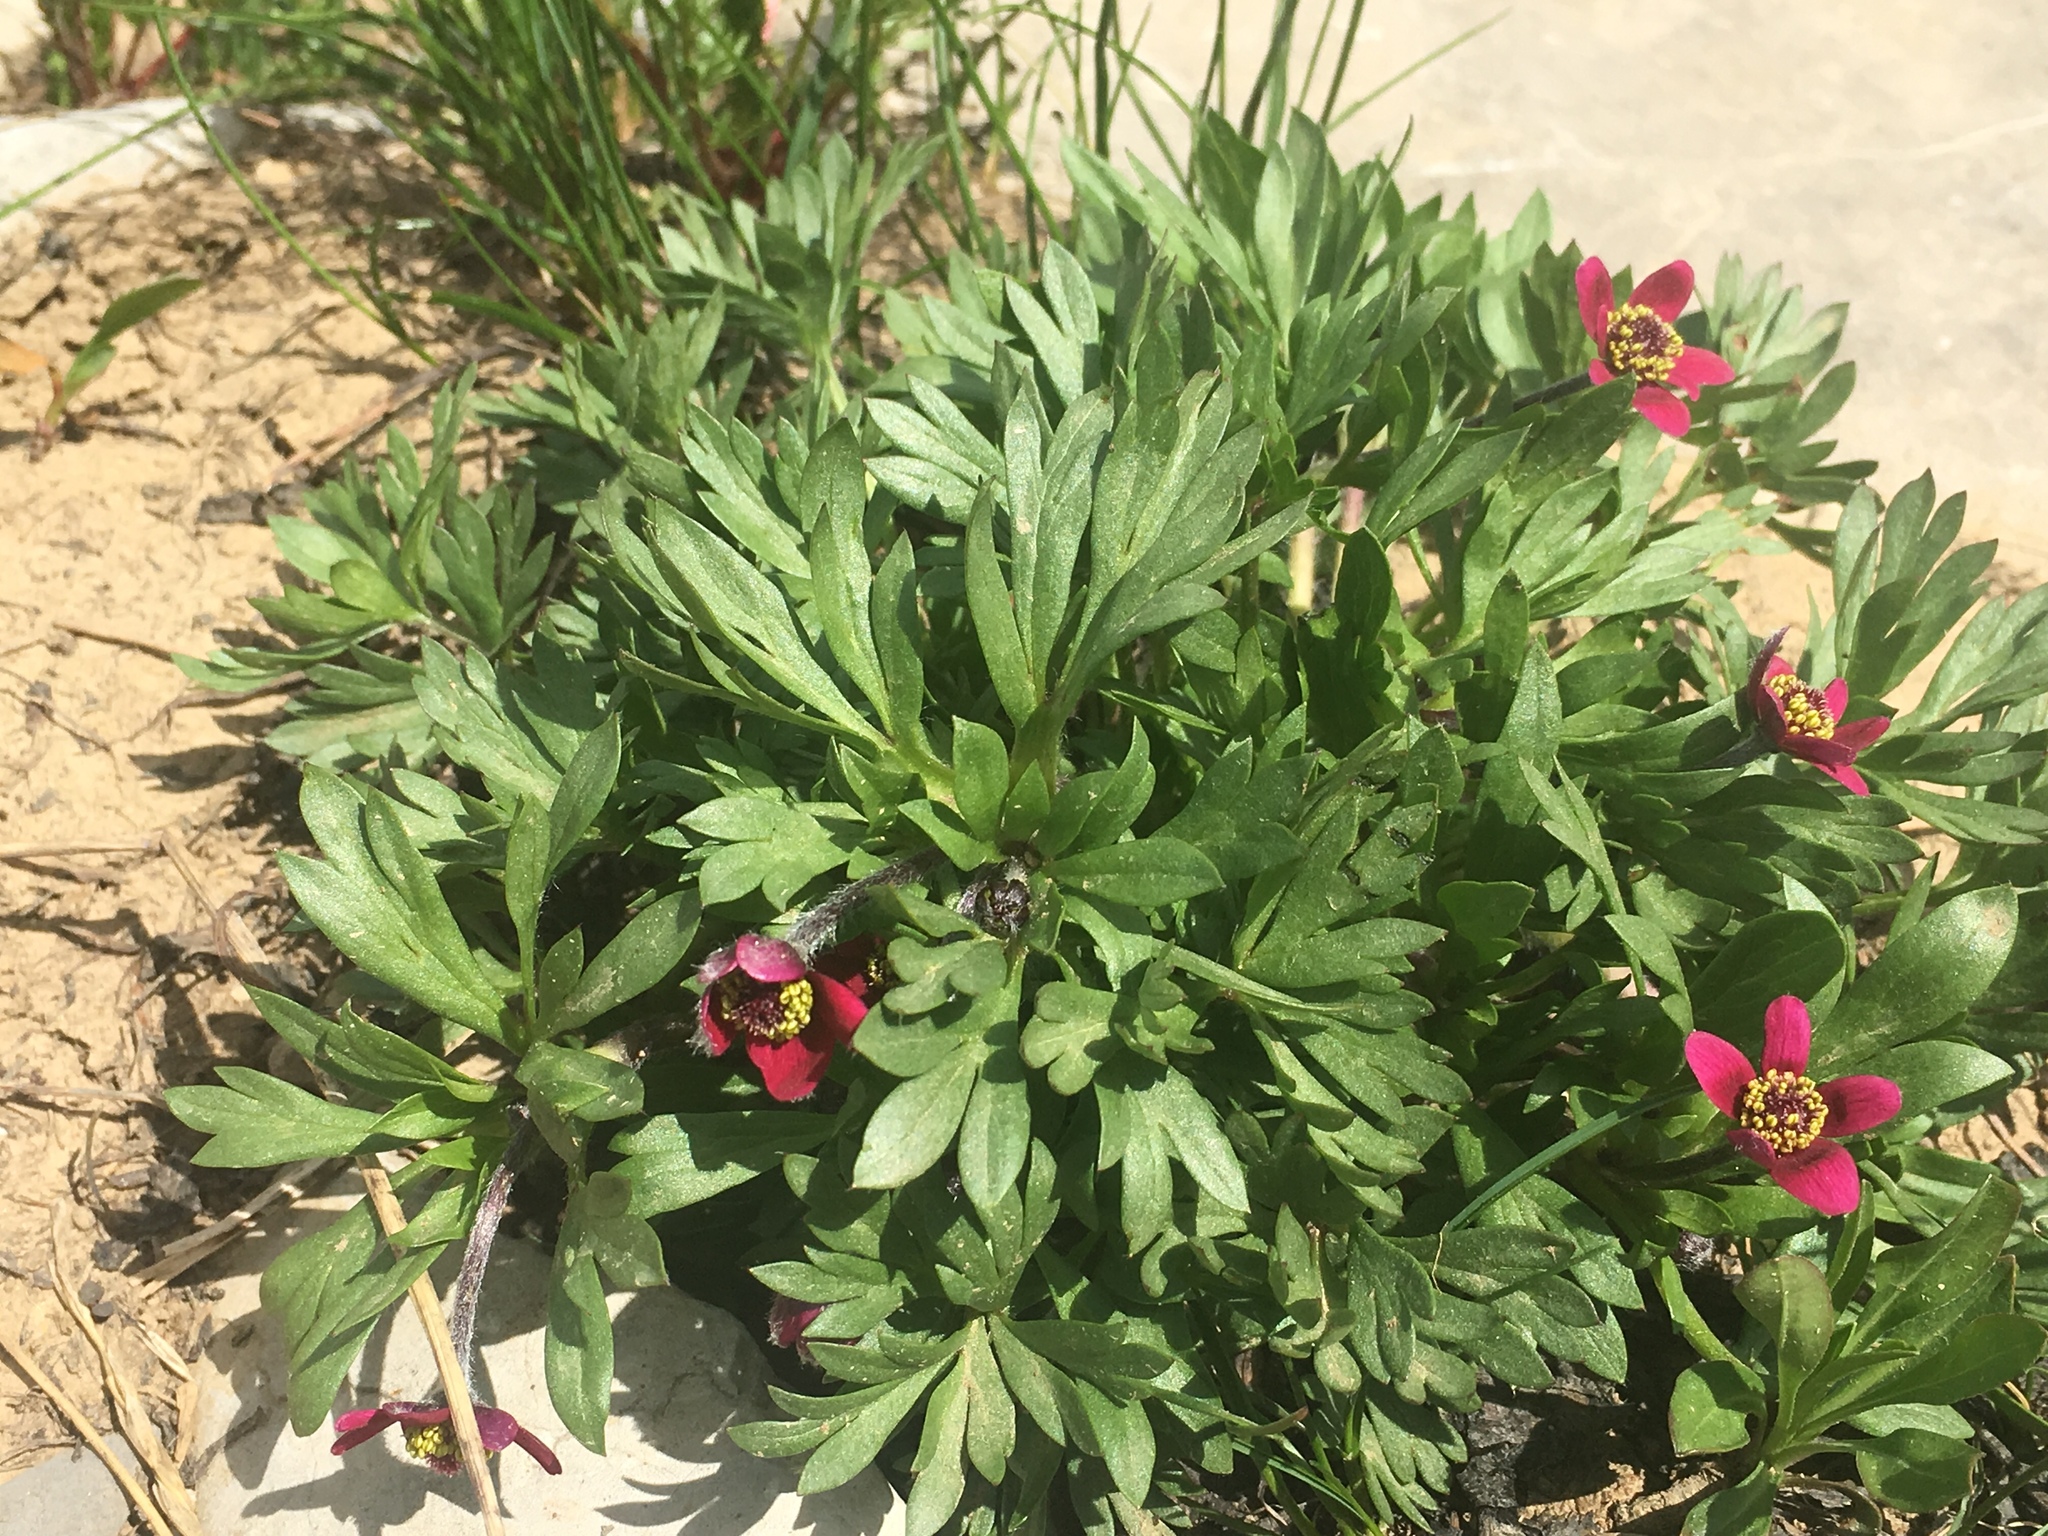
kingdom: Plantae
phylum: Tracheophyta
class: Magnoliopsida
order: Ranunculales
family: Ranunculaceae
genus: Anemone
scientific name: Anemone multifida
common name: Bird's-foot anemone
